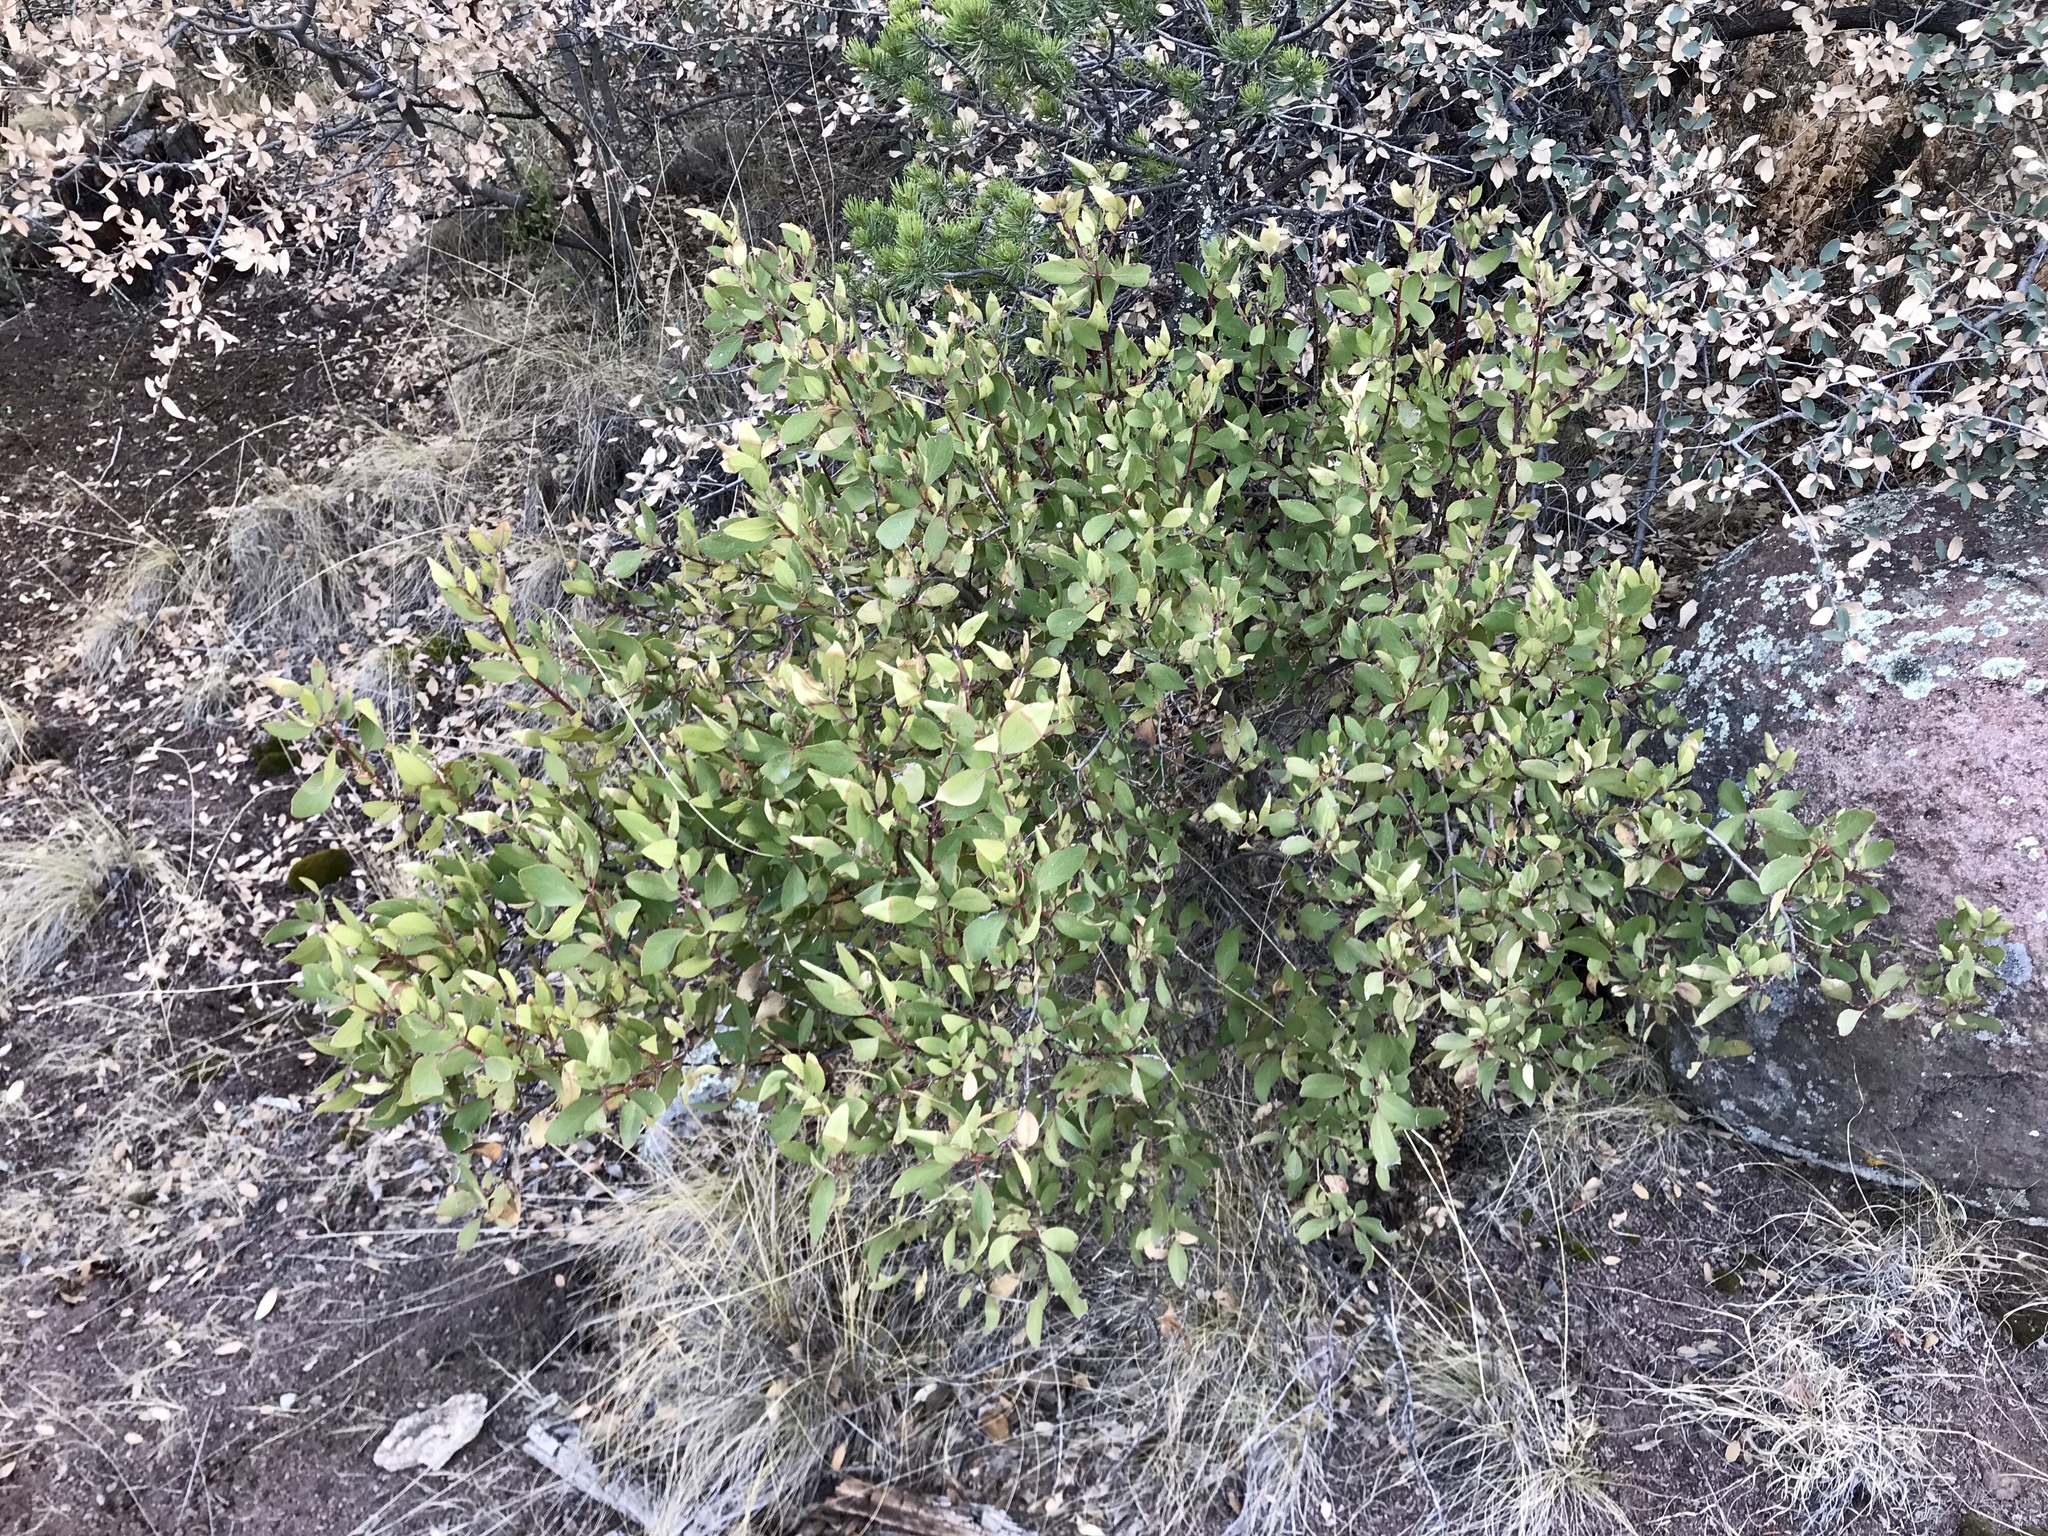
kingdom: Plantae
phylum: Tracheophyta
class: Magnoliopsida
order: Garryales
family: Garryaceae
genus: Garrya
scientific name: Garrya wrightii
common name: Wright's silktassel
